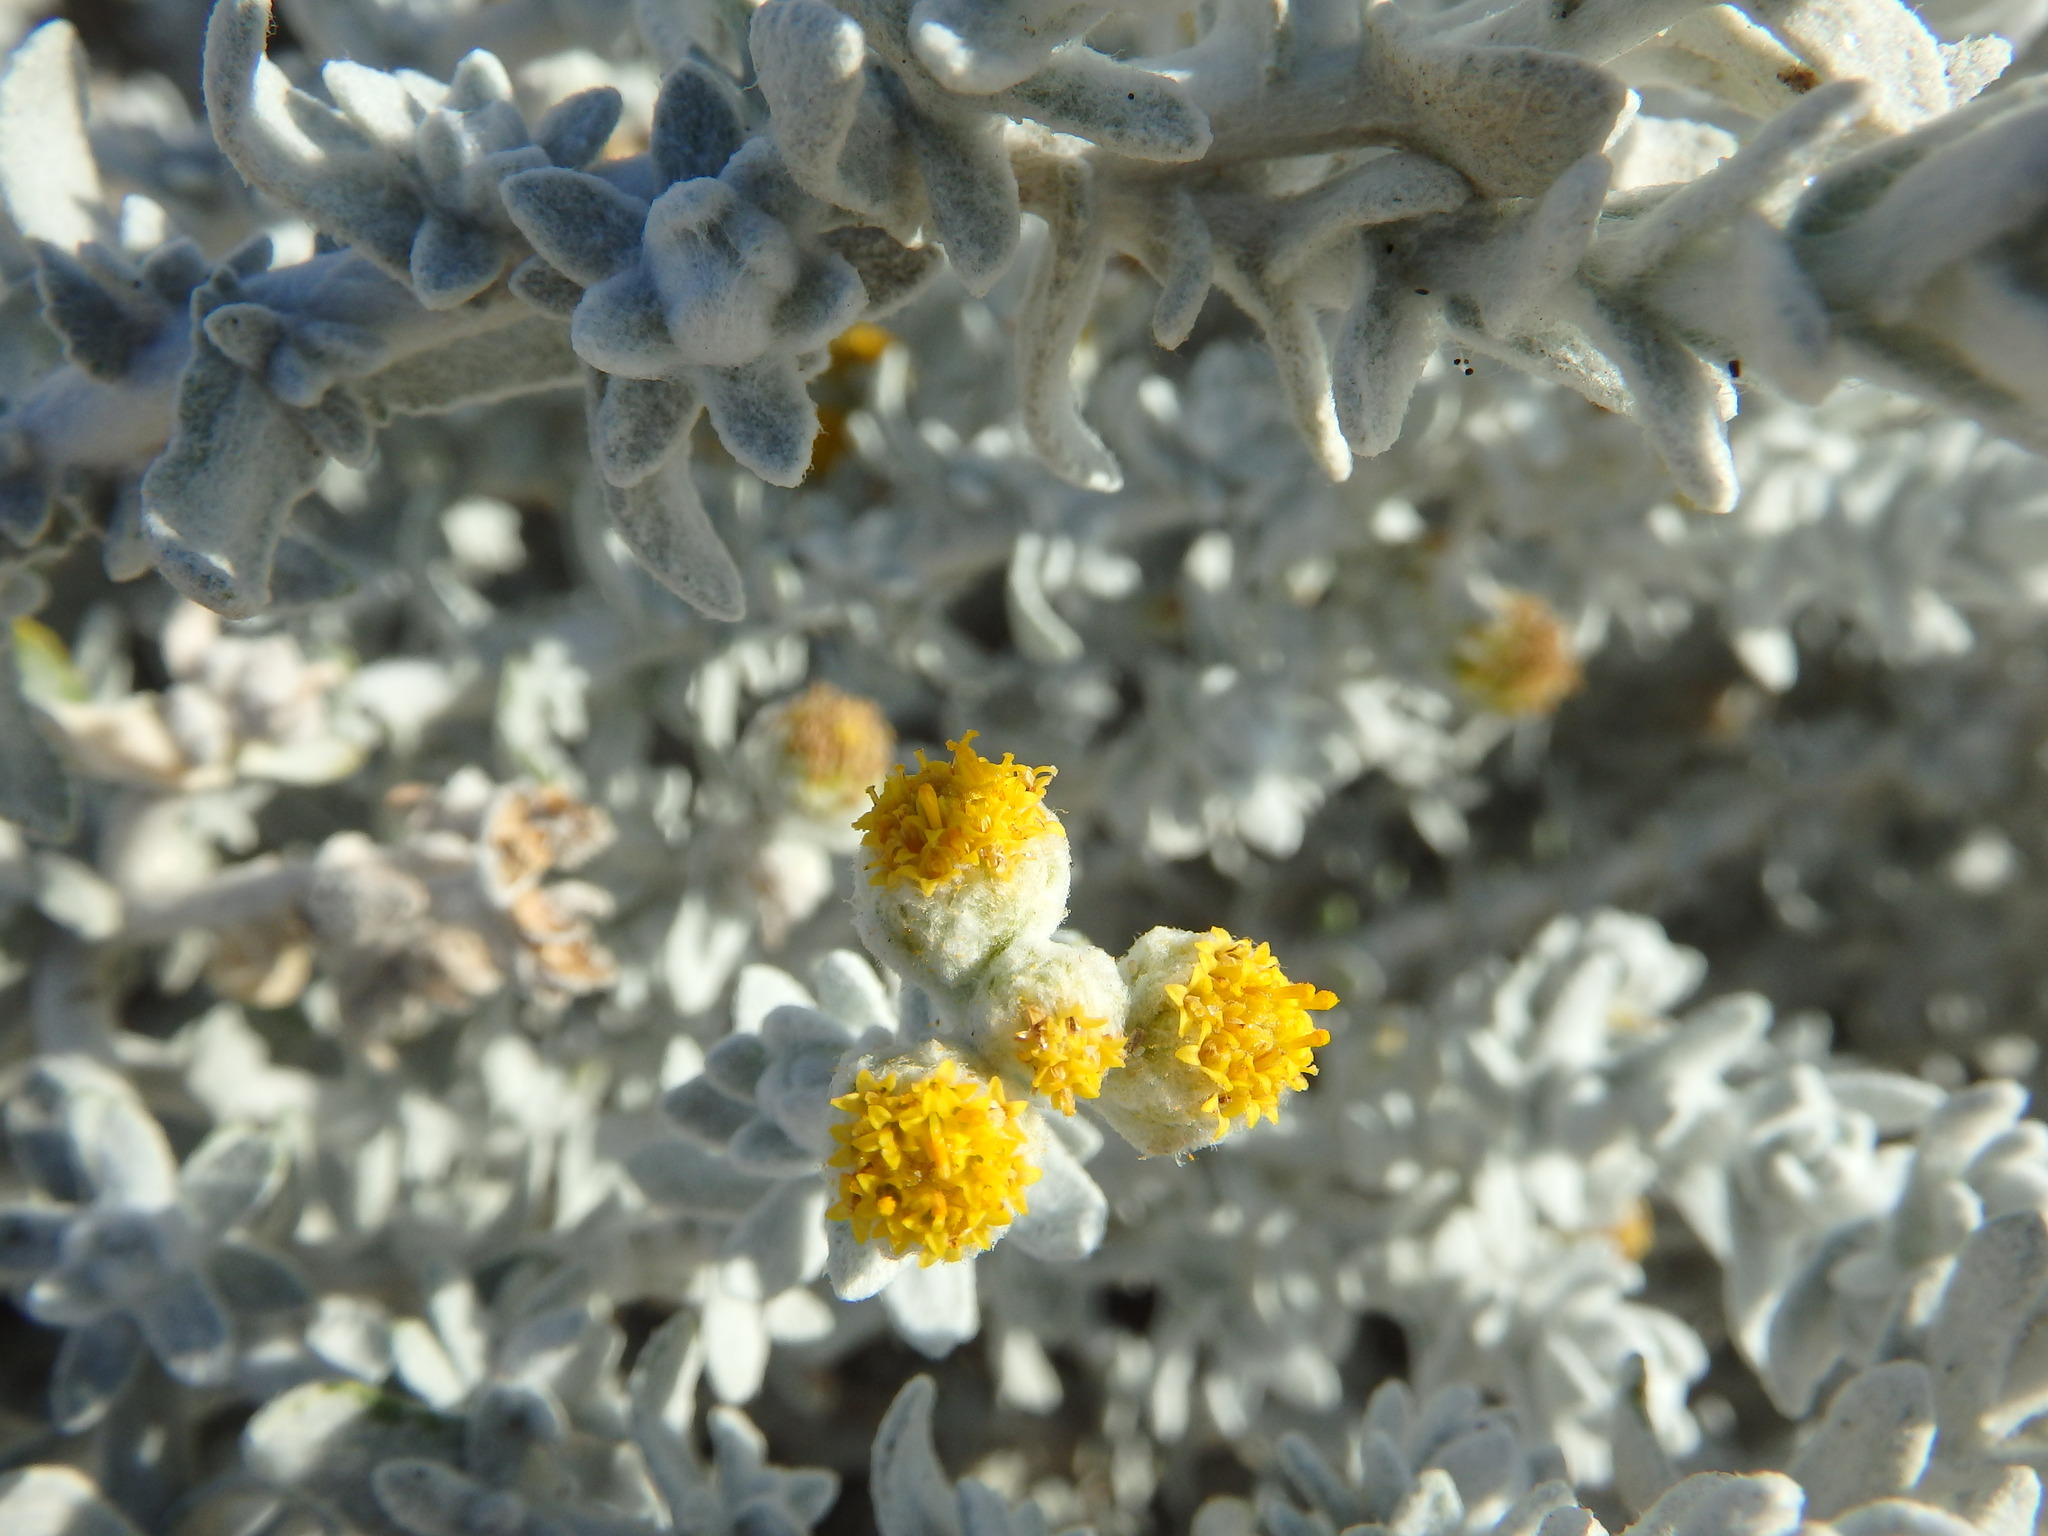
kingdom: Plantae
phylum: Tracheophyta
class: Magnoliopsida
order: Asterales
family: Asteraceae
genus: Achillea
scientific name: Achillea maritima
